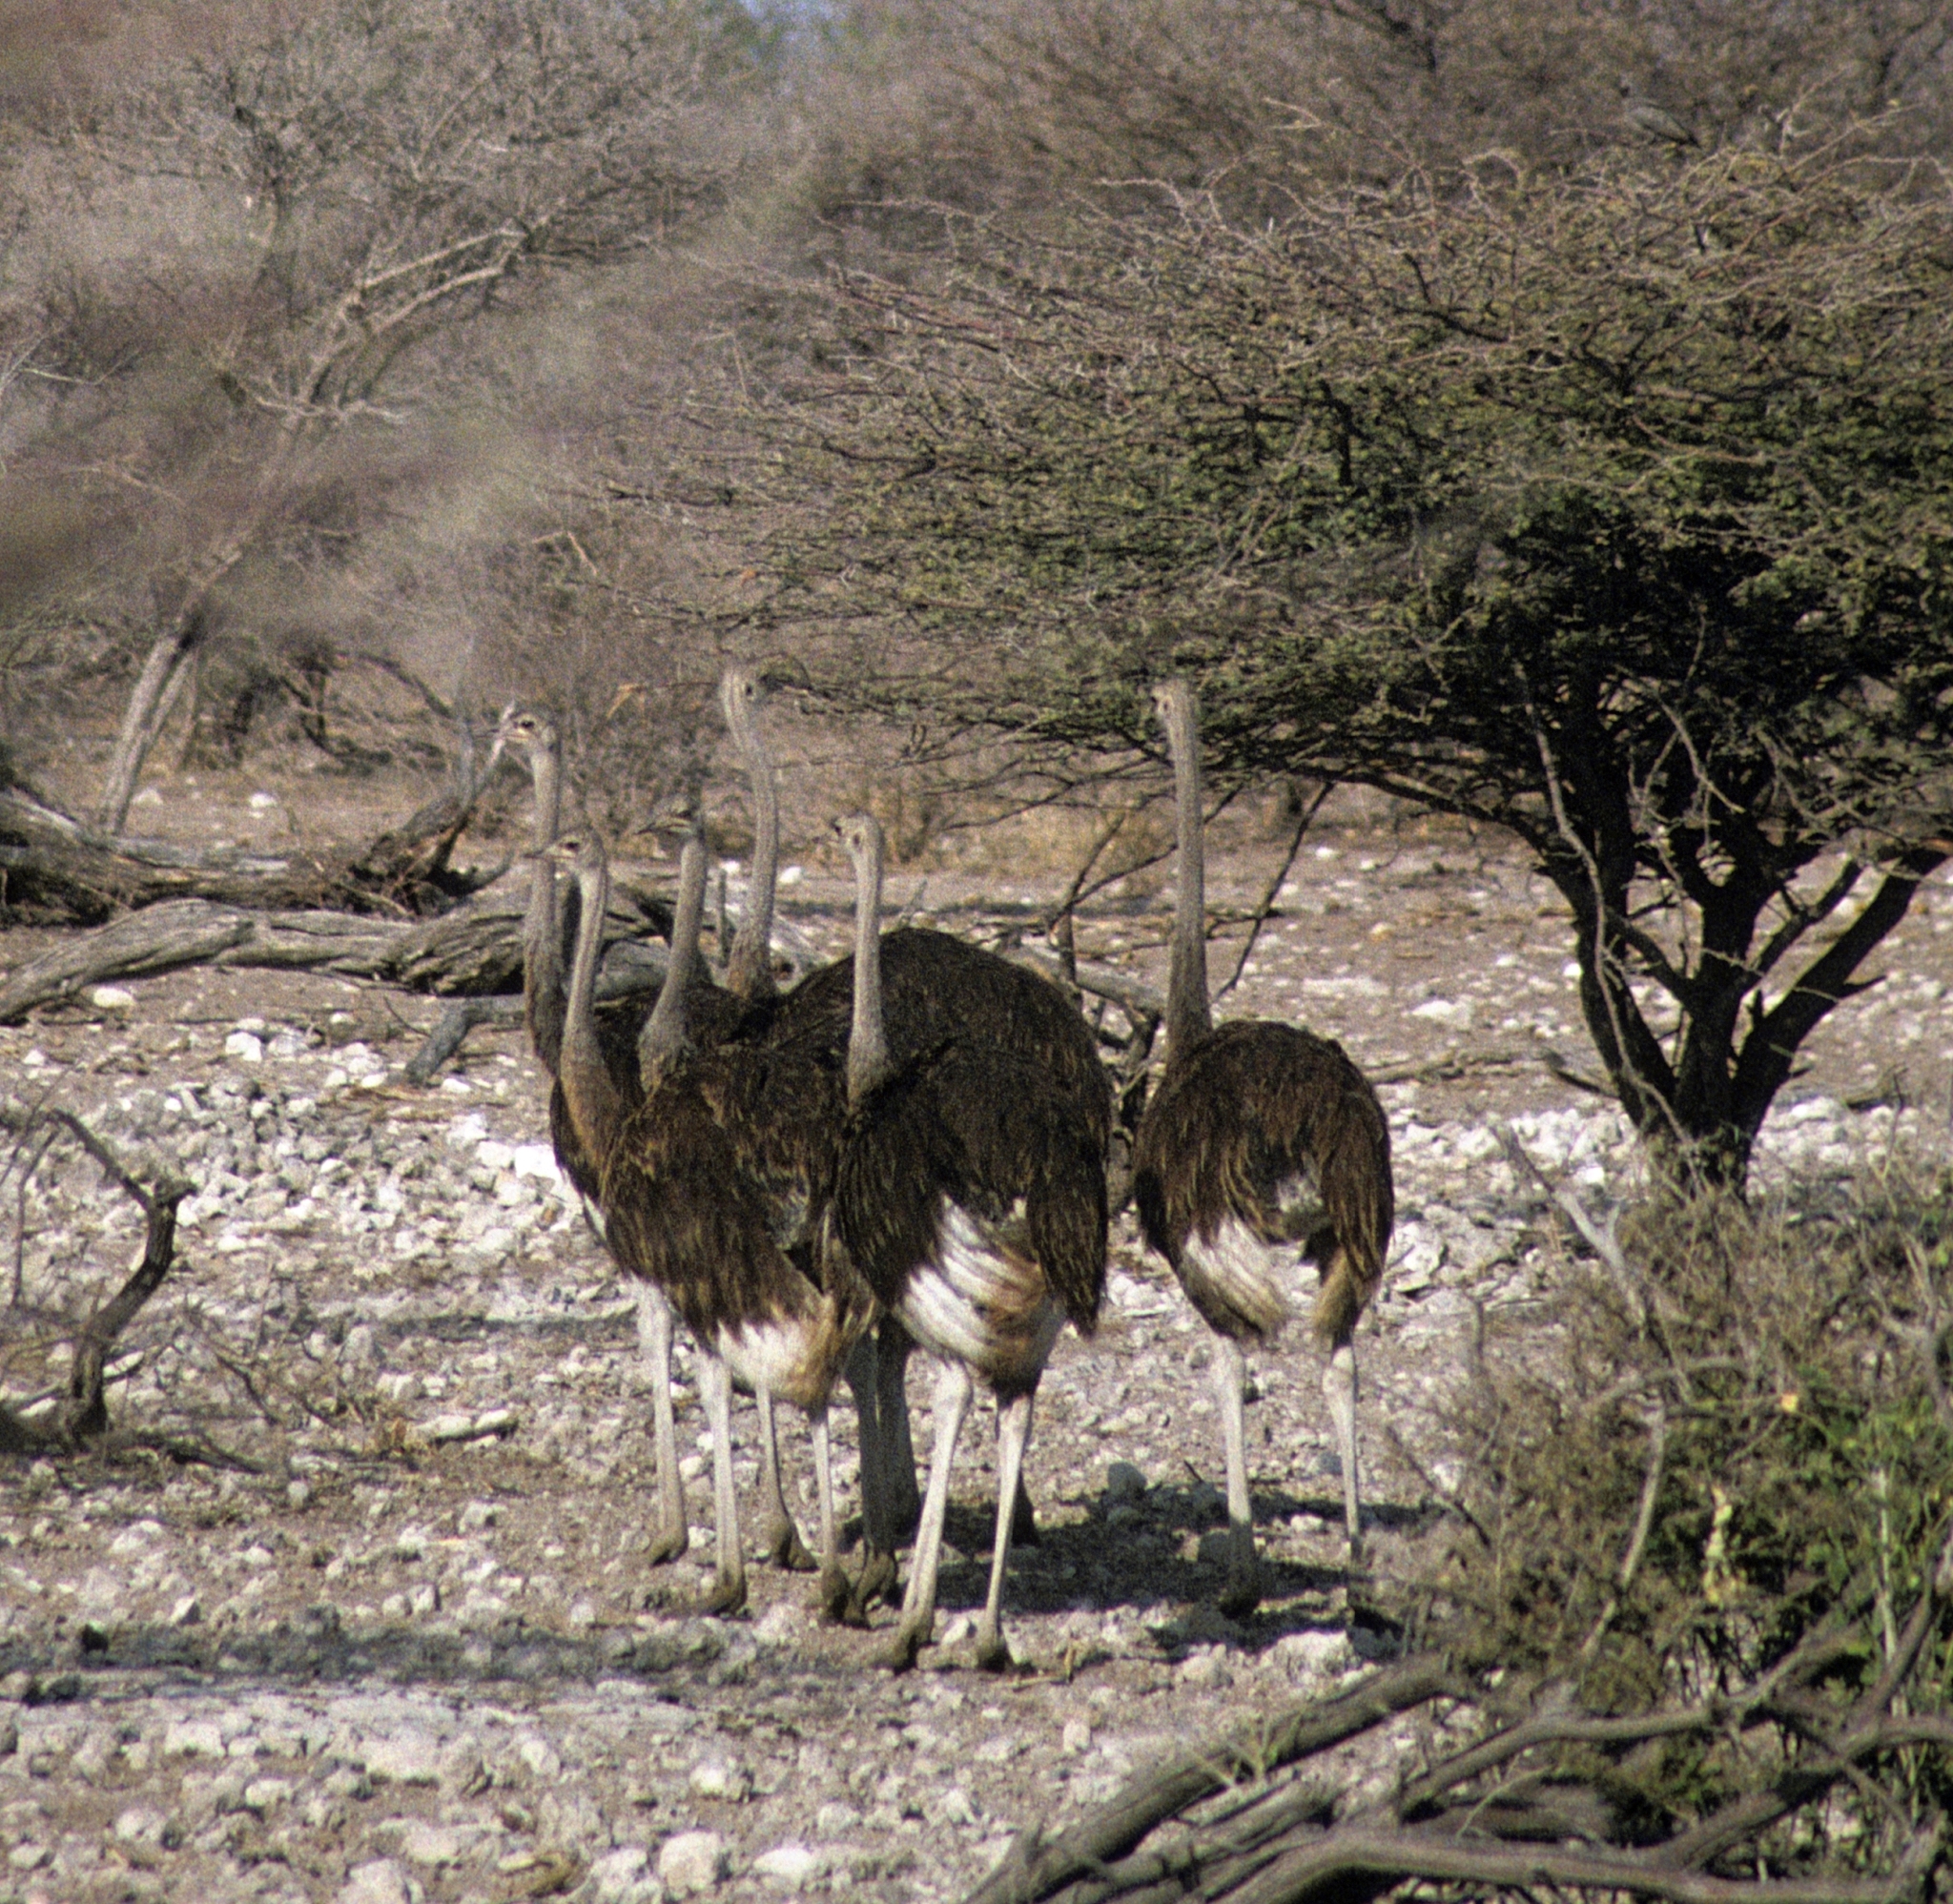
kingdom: Animalia
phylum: Chordata
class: Aves
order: Struthioniformes
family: Struthionidae
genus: Struthio
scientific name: Struthio camelus
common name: Common ostrich
